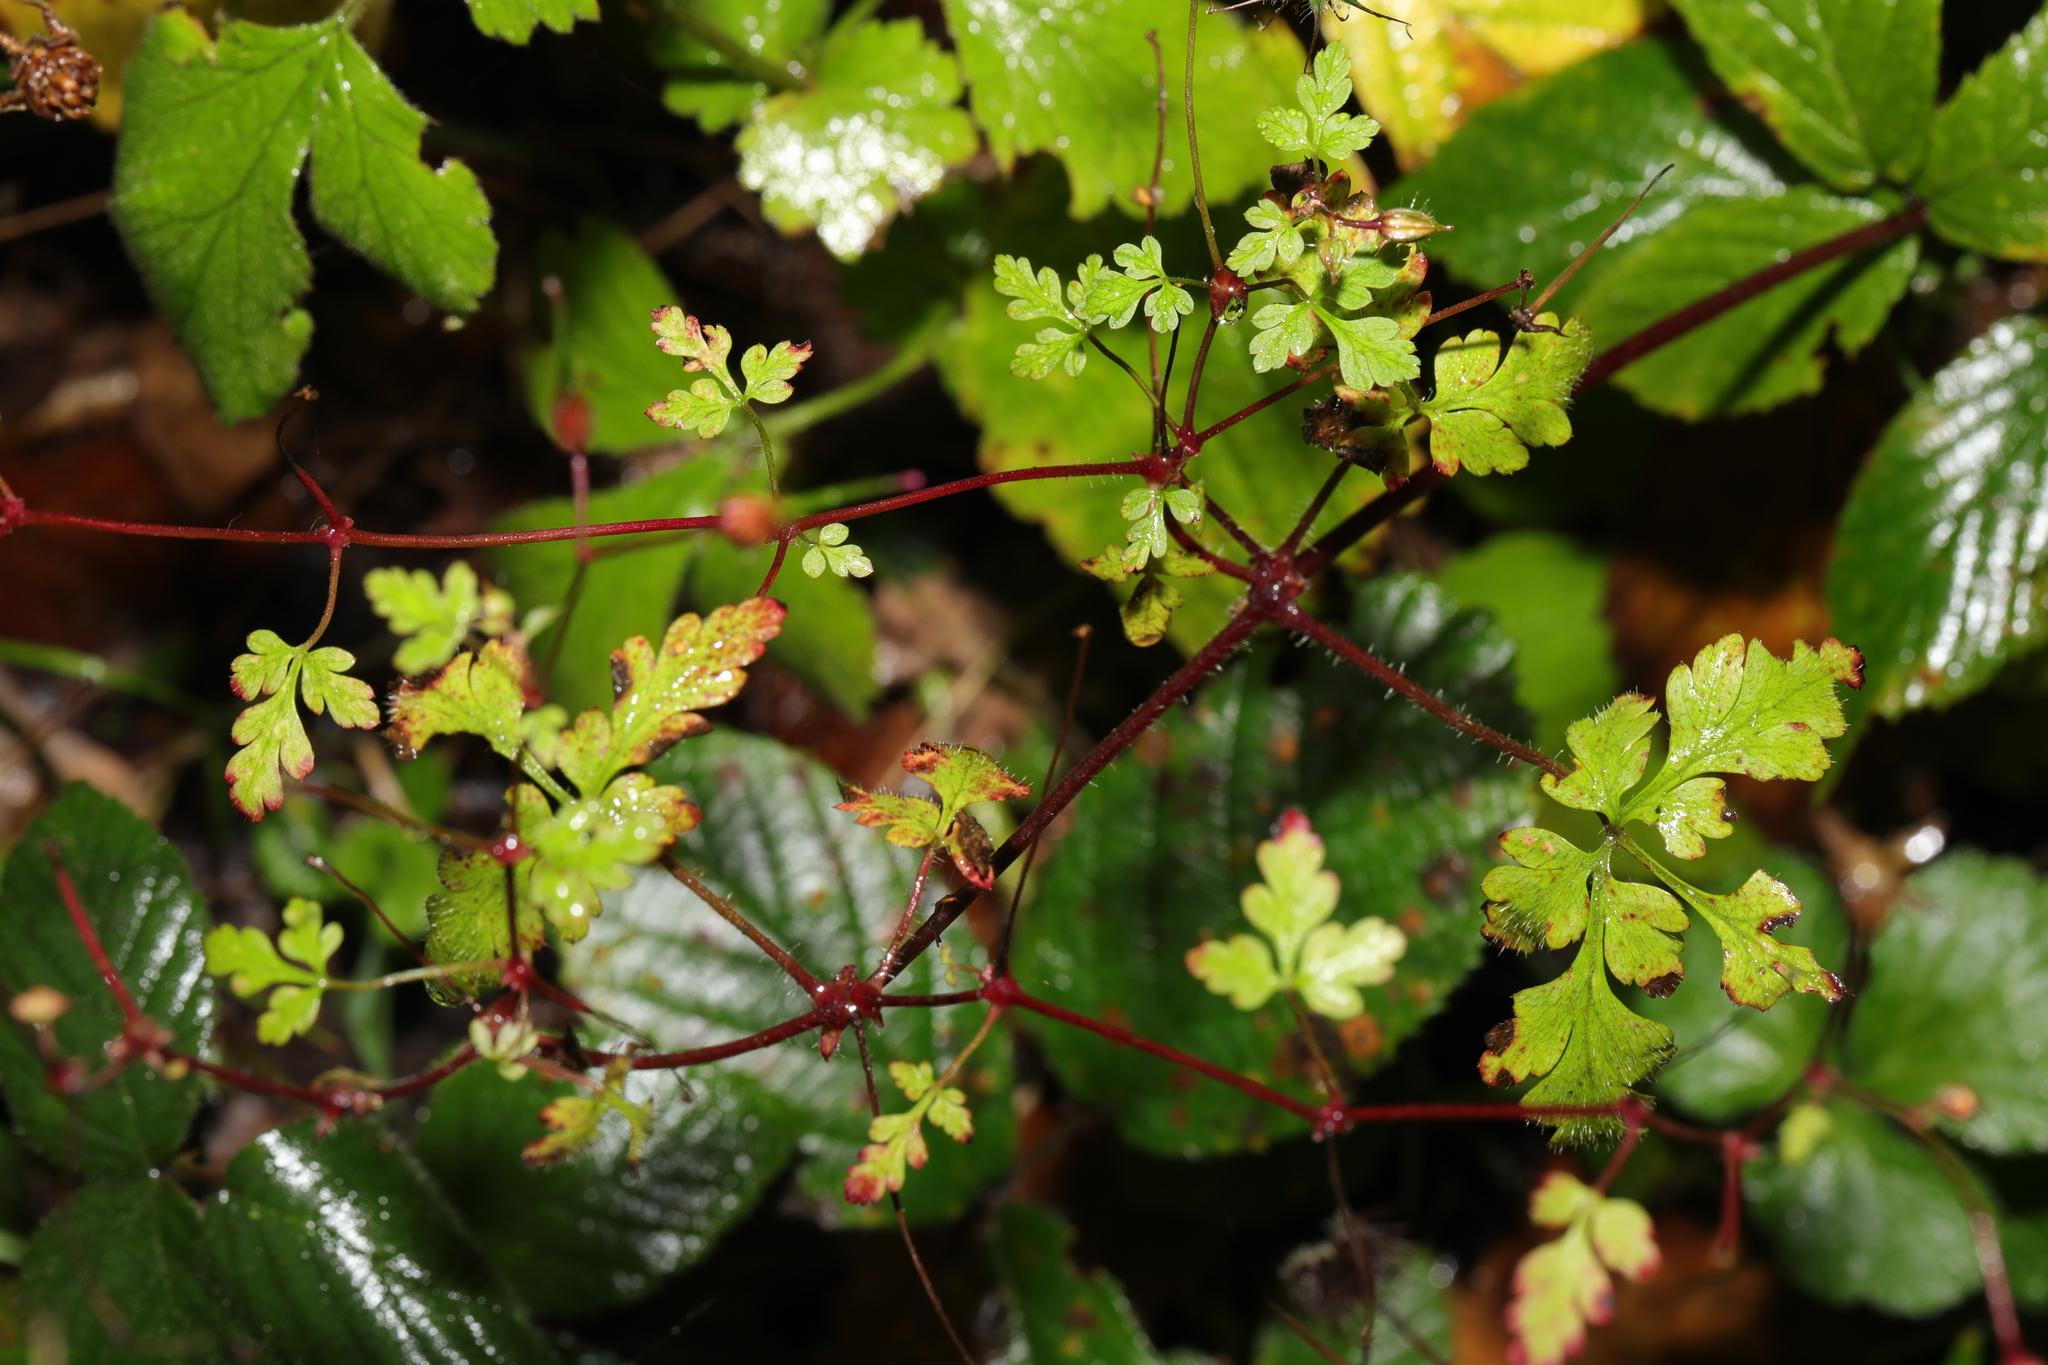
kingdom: Plantae
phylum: Tracheophyta
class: Magnoliopsida
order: Geraniales
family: Geraniaceae
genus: Geranium
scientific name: Geranium robertianum
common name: Herb-robert
